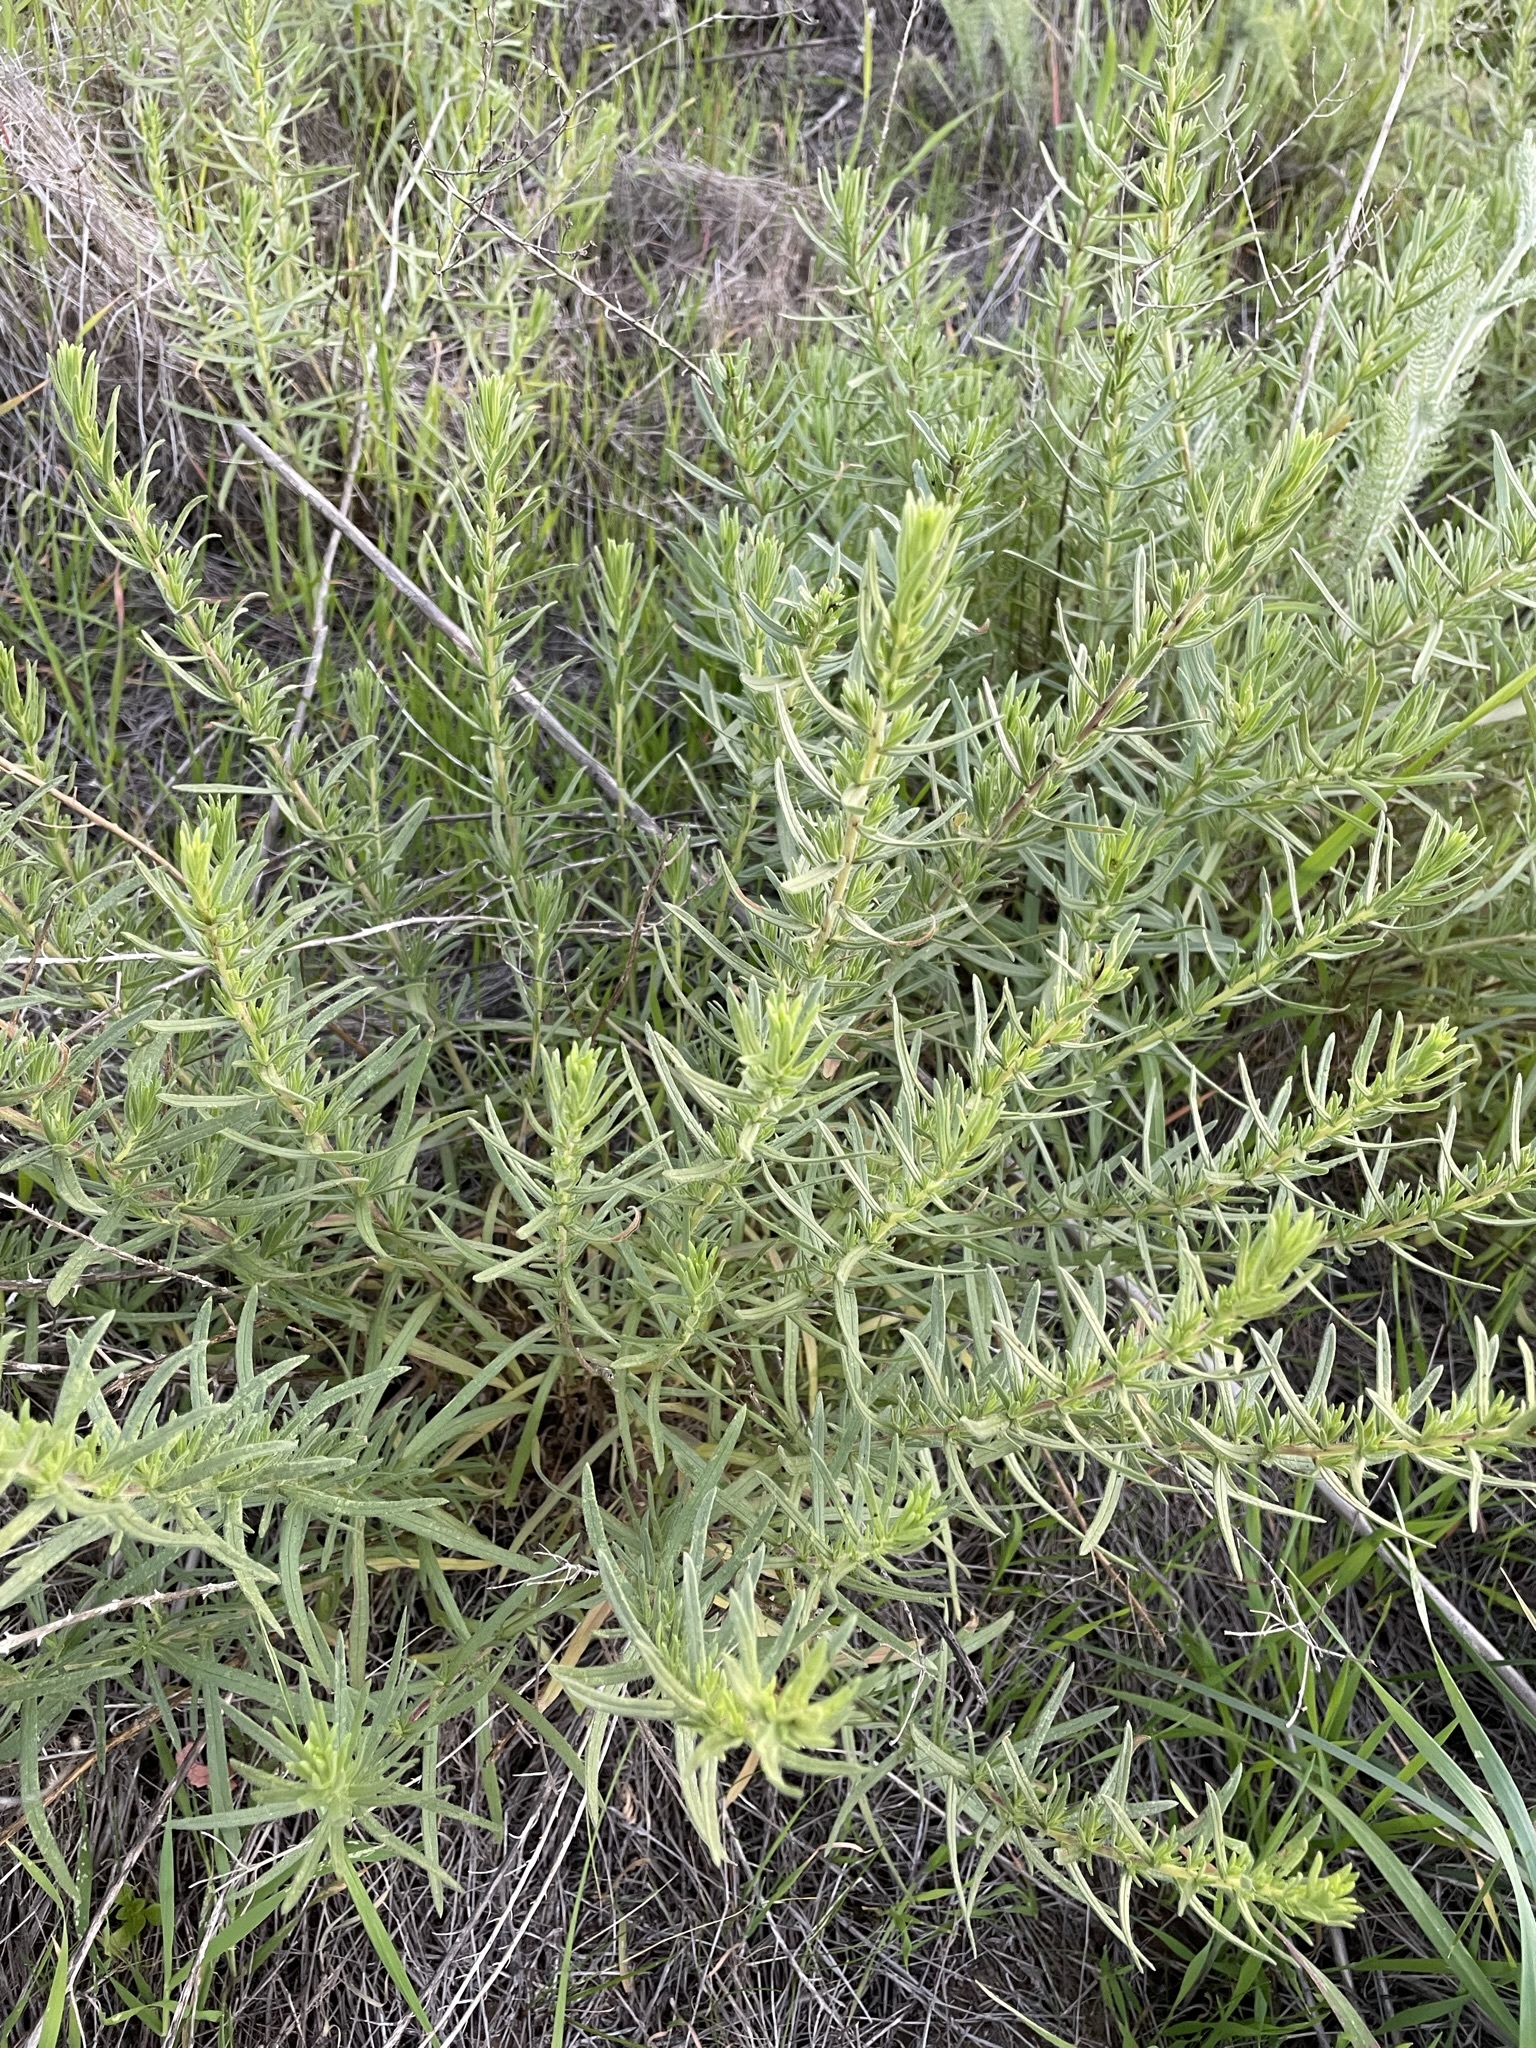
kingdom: Plantae
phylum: Tracheophyta
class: Magnoliopsida
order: Asterales
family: Asteraceae
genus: Deinandra
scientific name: Deinandra clementina
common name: Island tarplant
